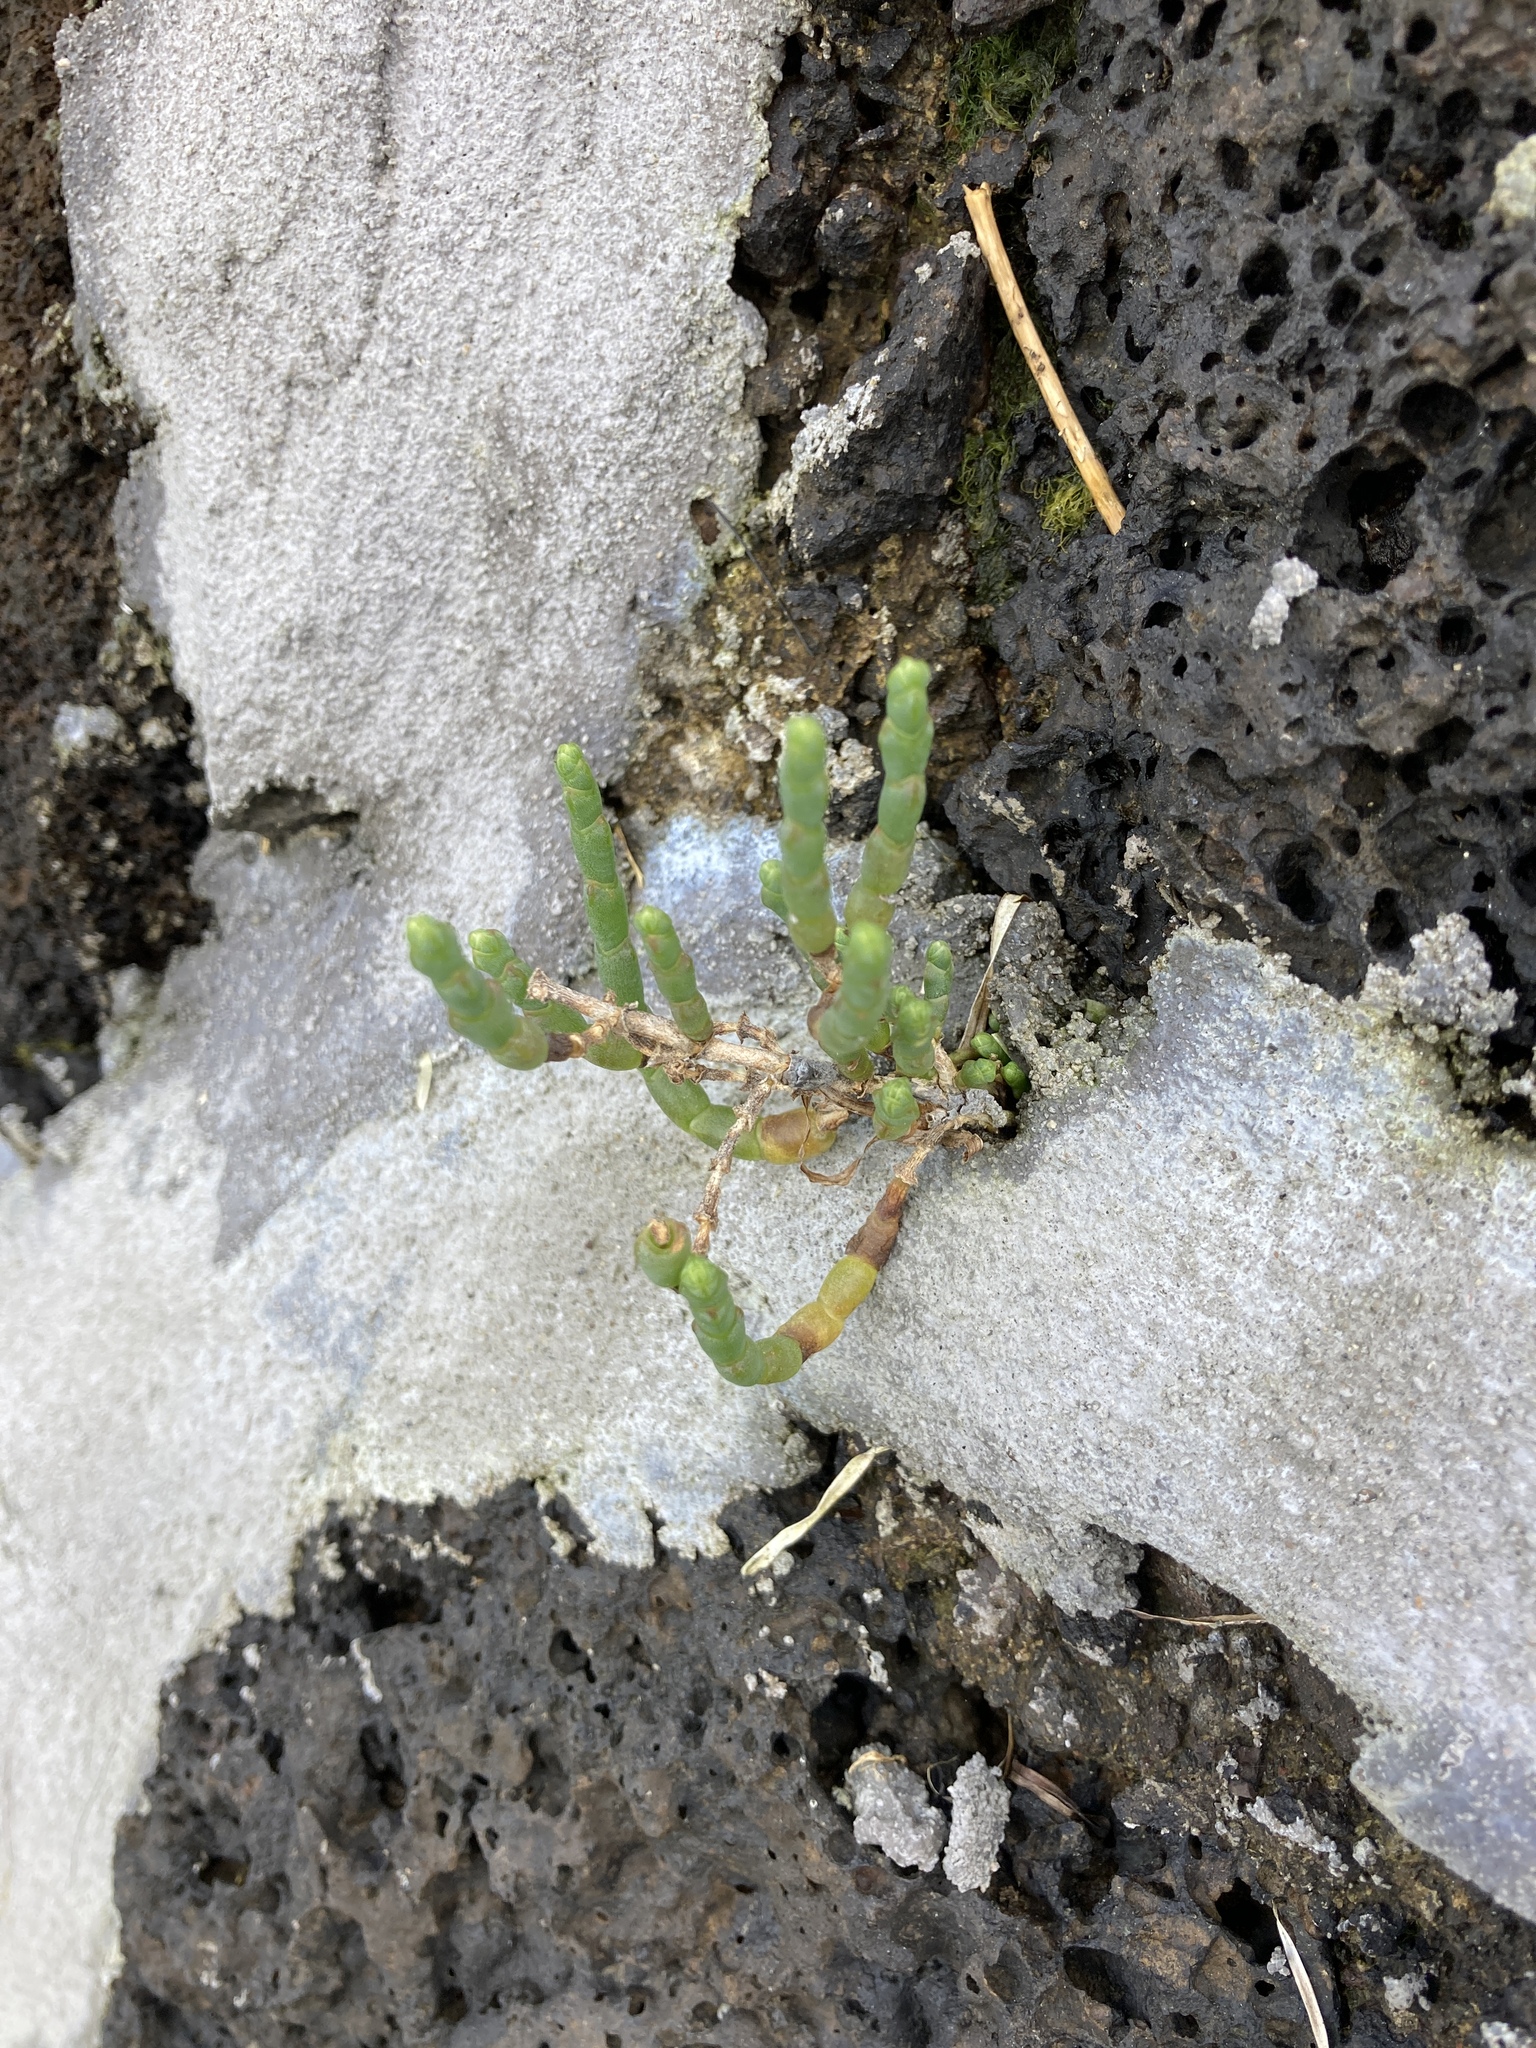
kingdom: Plantae
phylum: Tracheophyta
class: Magnoliopsida
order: Caryophyllales
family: Amaranthaceae
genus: Salicornia
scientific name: Salicornia quinqueflora
